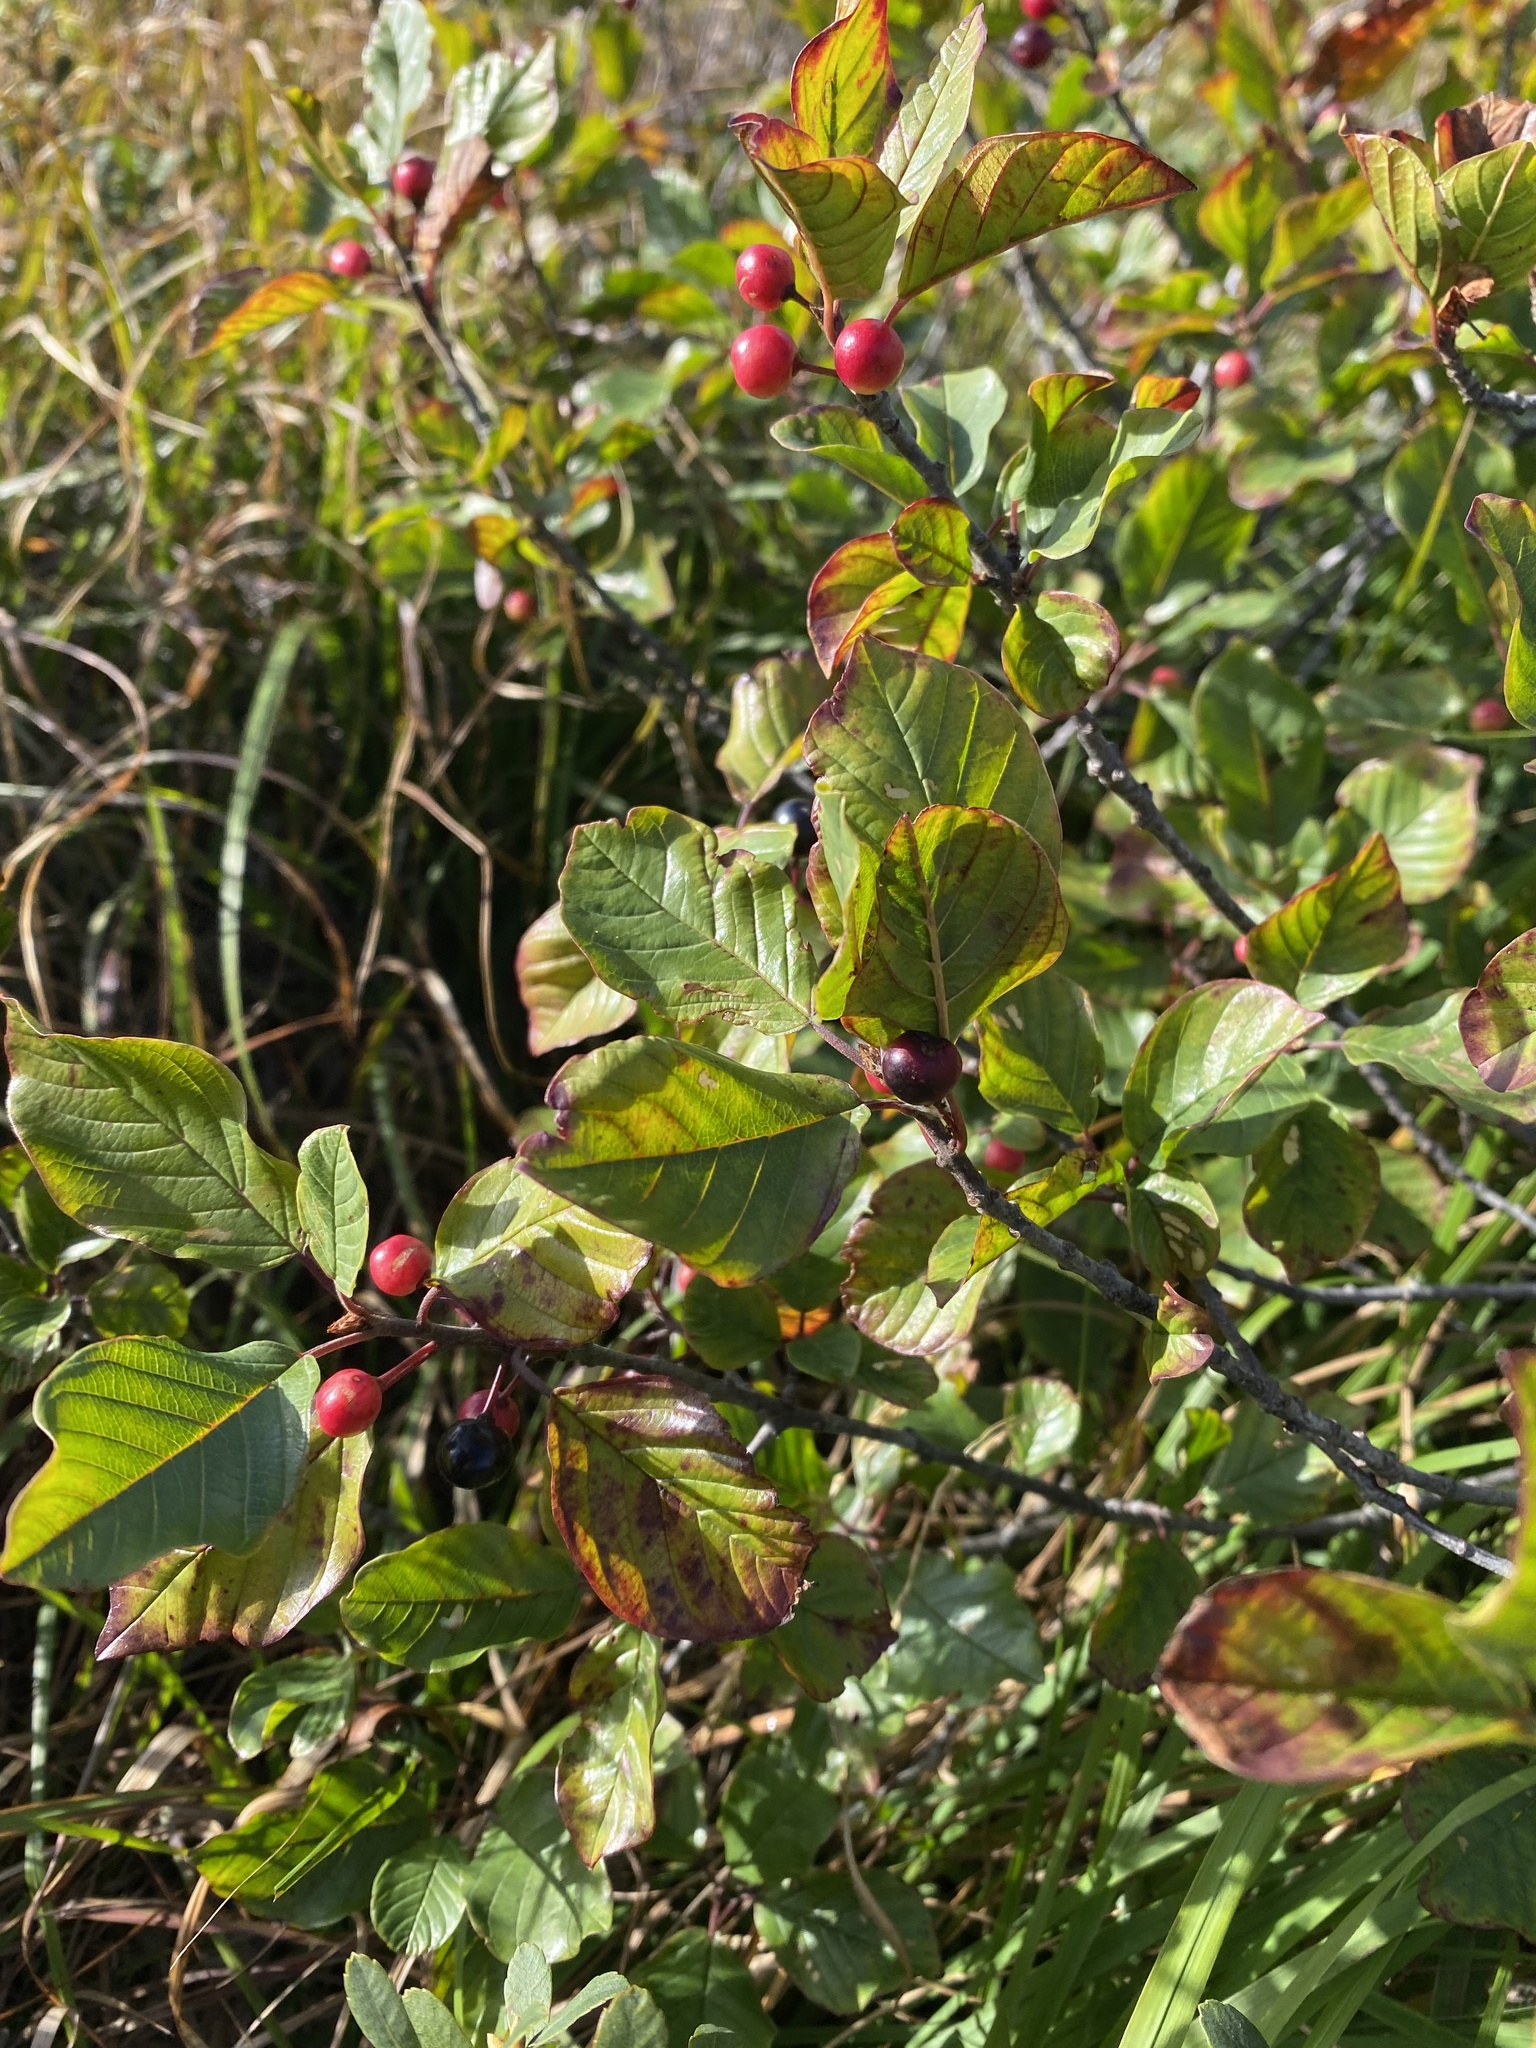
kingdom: Plantae
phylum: Tracheophyta
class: Magnoliopsida
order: Rosales
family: Rhamnaceae
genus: Frangula
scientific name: Frangula alnus
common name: Alder buckthorn
